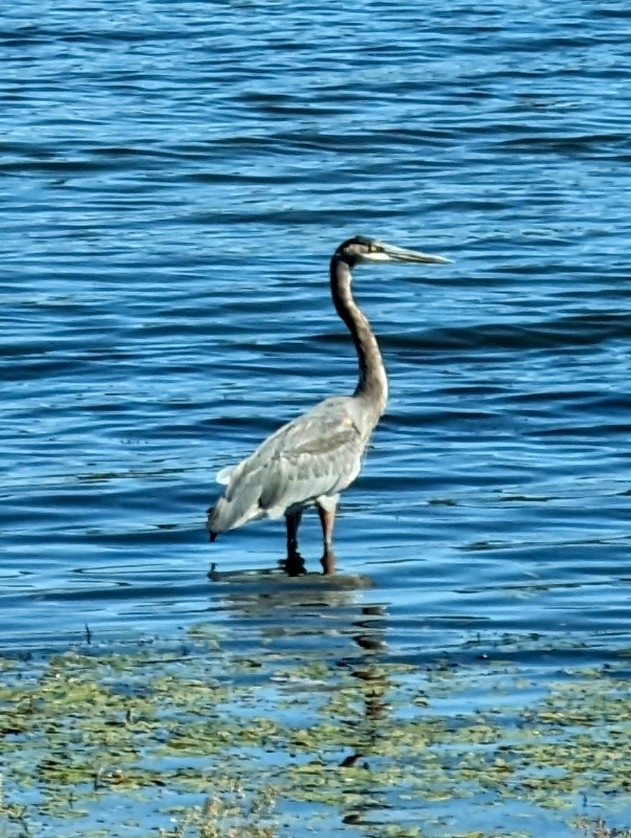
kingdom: Animalia
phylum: Chordata
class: Aves
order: Pelecaniformes
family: Ardeidae
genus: Ardea
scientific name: Ardea herodias
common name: Great blue heron
